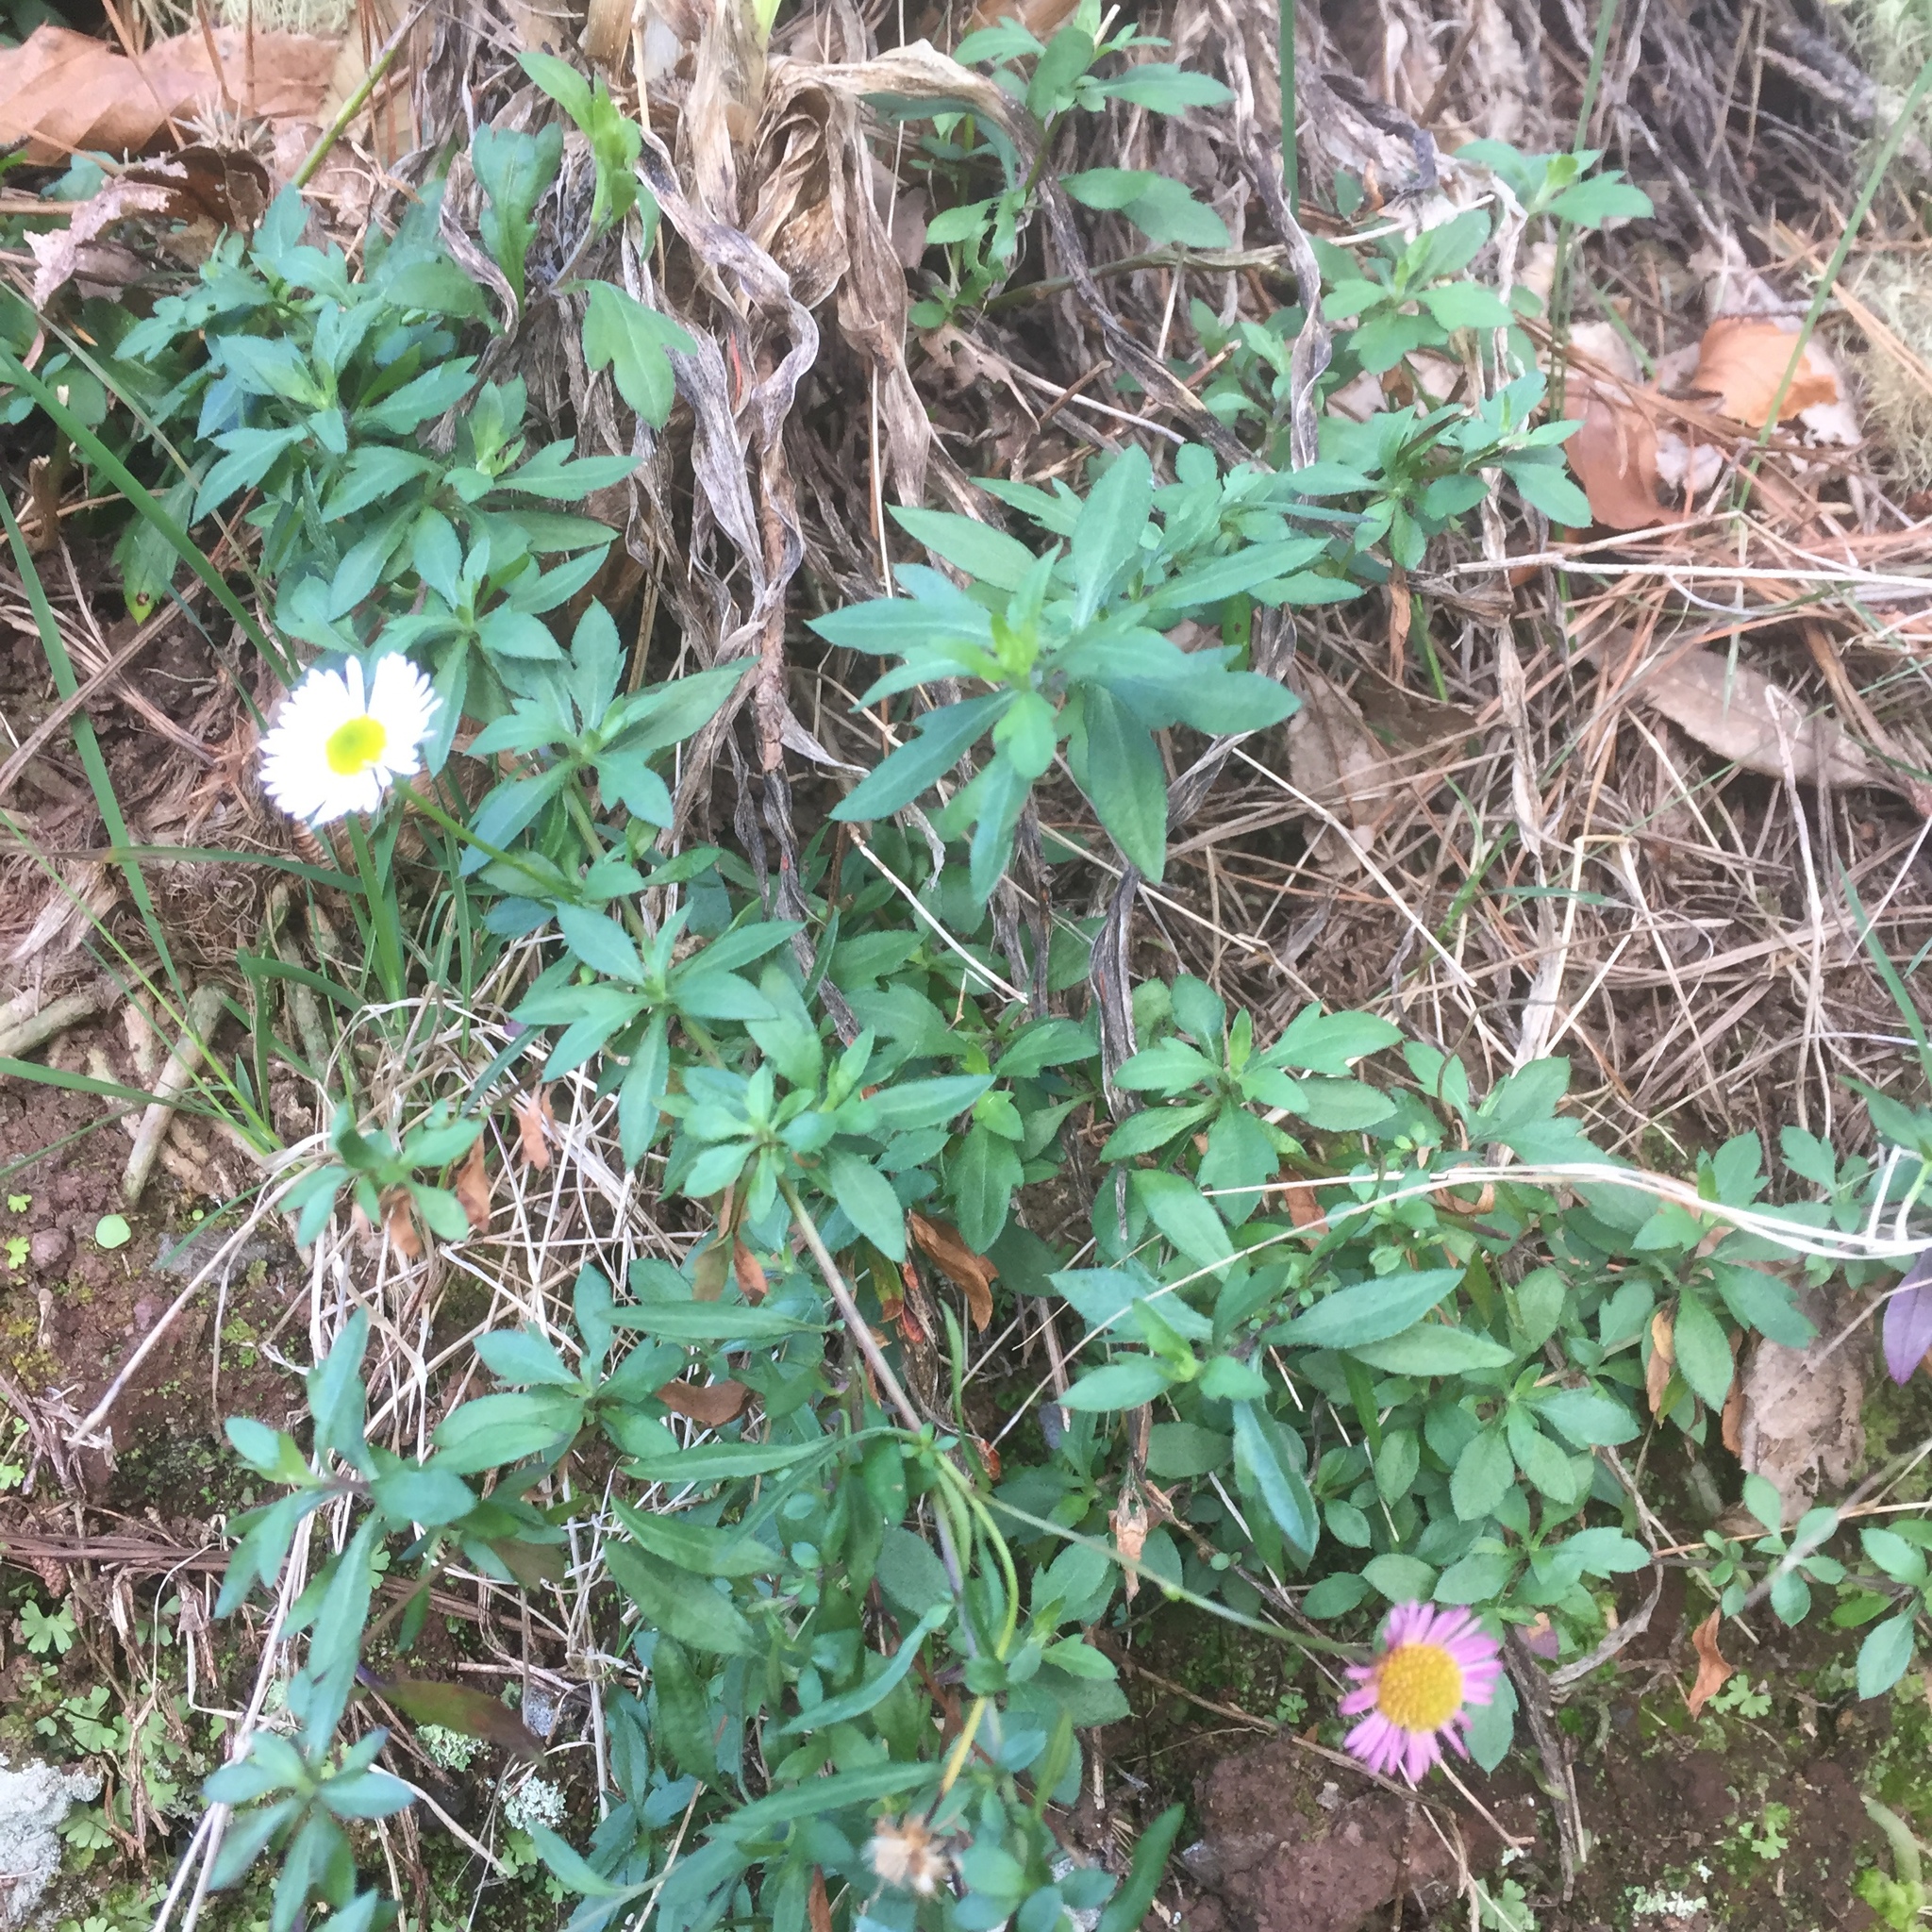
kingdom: Plantae
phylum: Tracheophyta
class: Magnoliopsida
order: Asterales
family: Asteraceae
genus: Erigeron
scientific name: Erigeron karvinskianus
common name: Mexican fleabane
